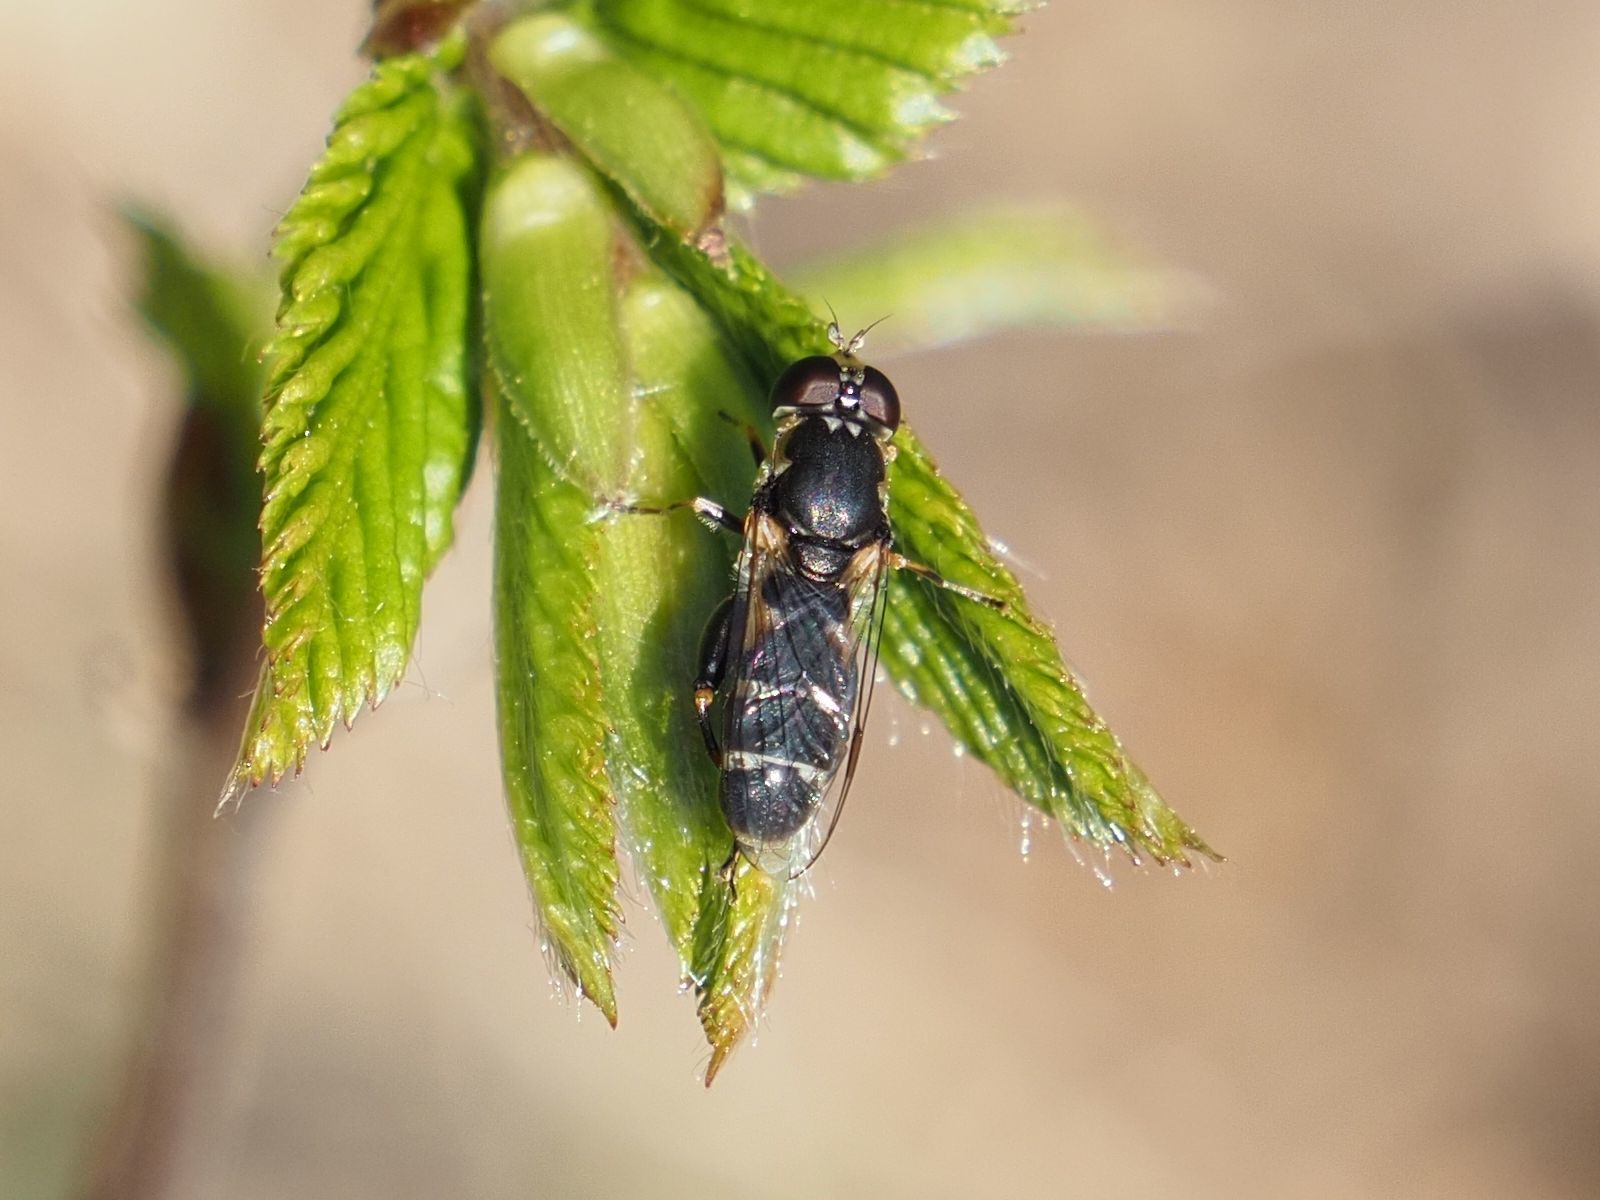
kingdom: Animalia
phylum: Arthropoda
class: Insecta
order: Diptera
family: Syrphidae
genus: Syritta
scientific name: Syritta pipiens
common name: Hover fly
